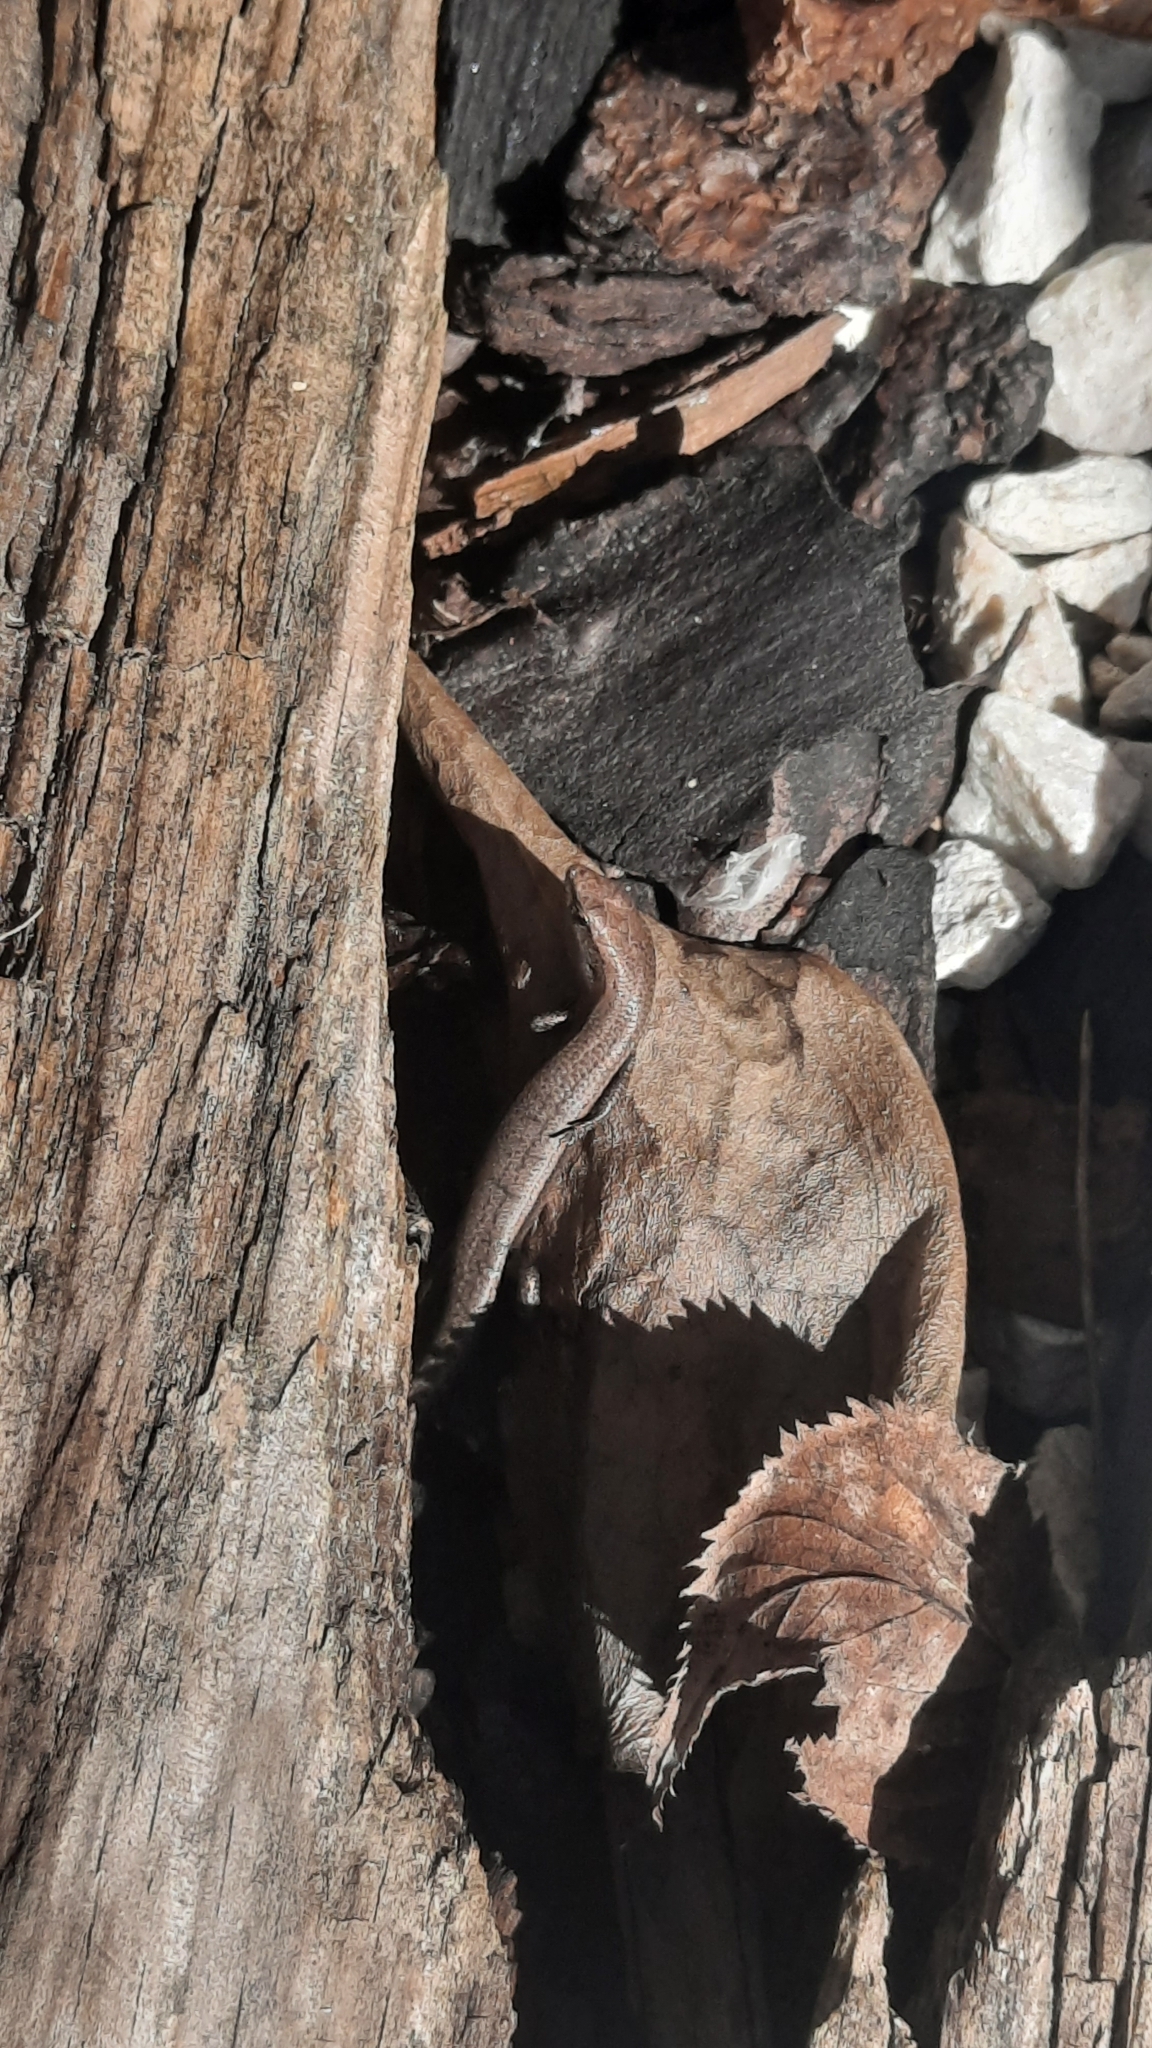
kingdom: Animalia
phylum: Chordata
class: Squamata
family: Scincidae
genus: Lampropholis
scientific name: Lampropholis delicata
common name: Plague skink
